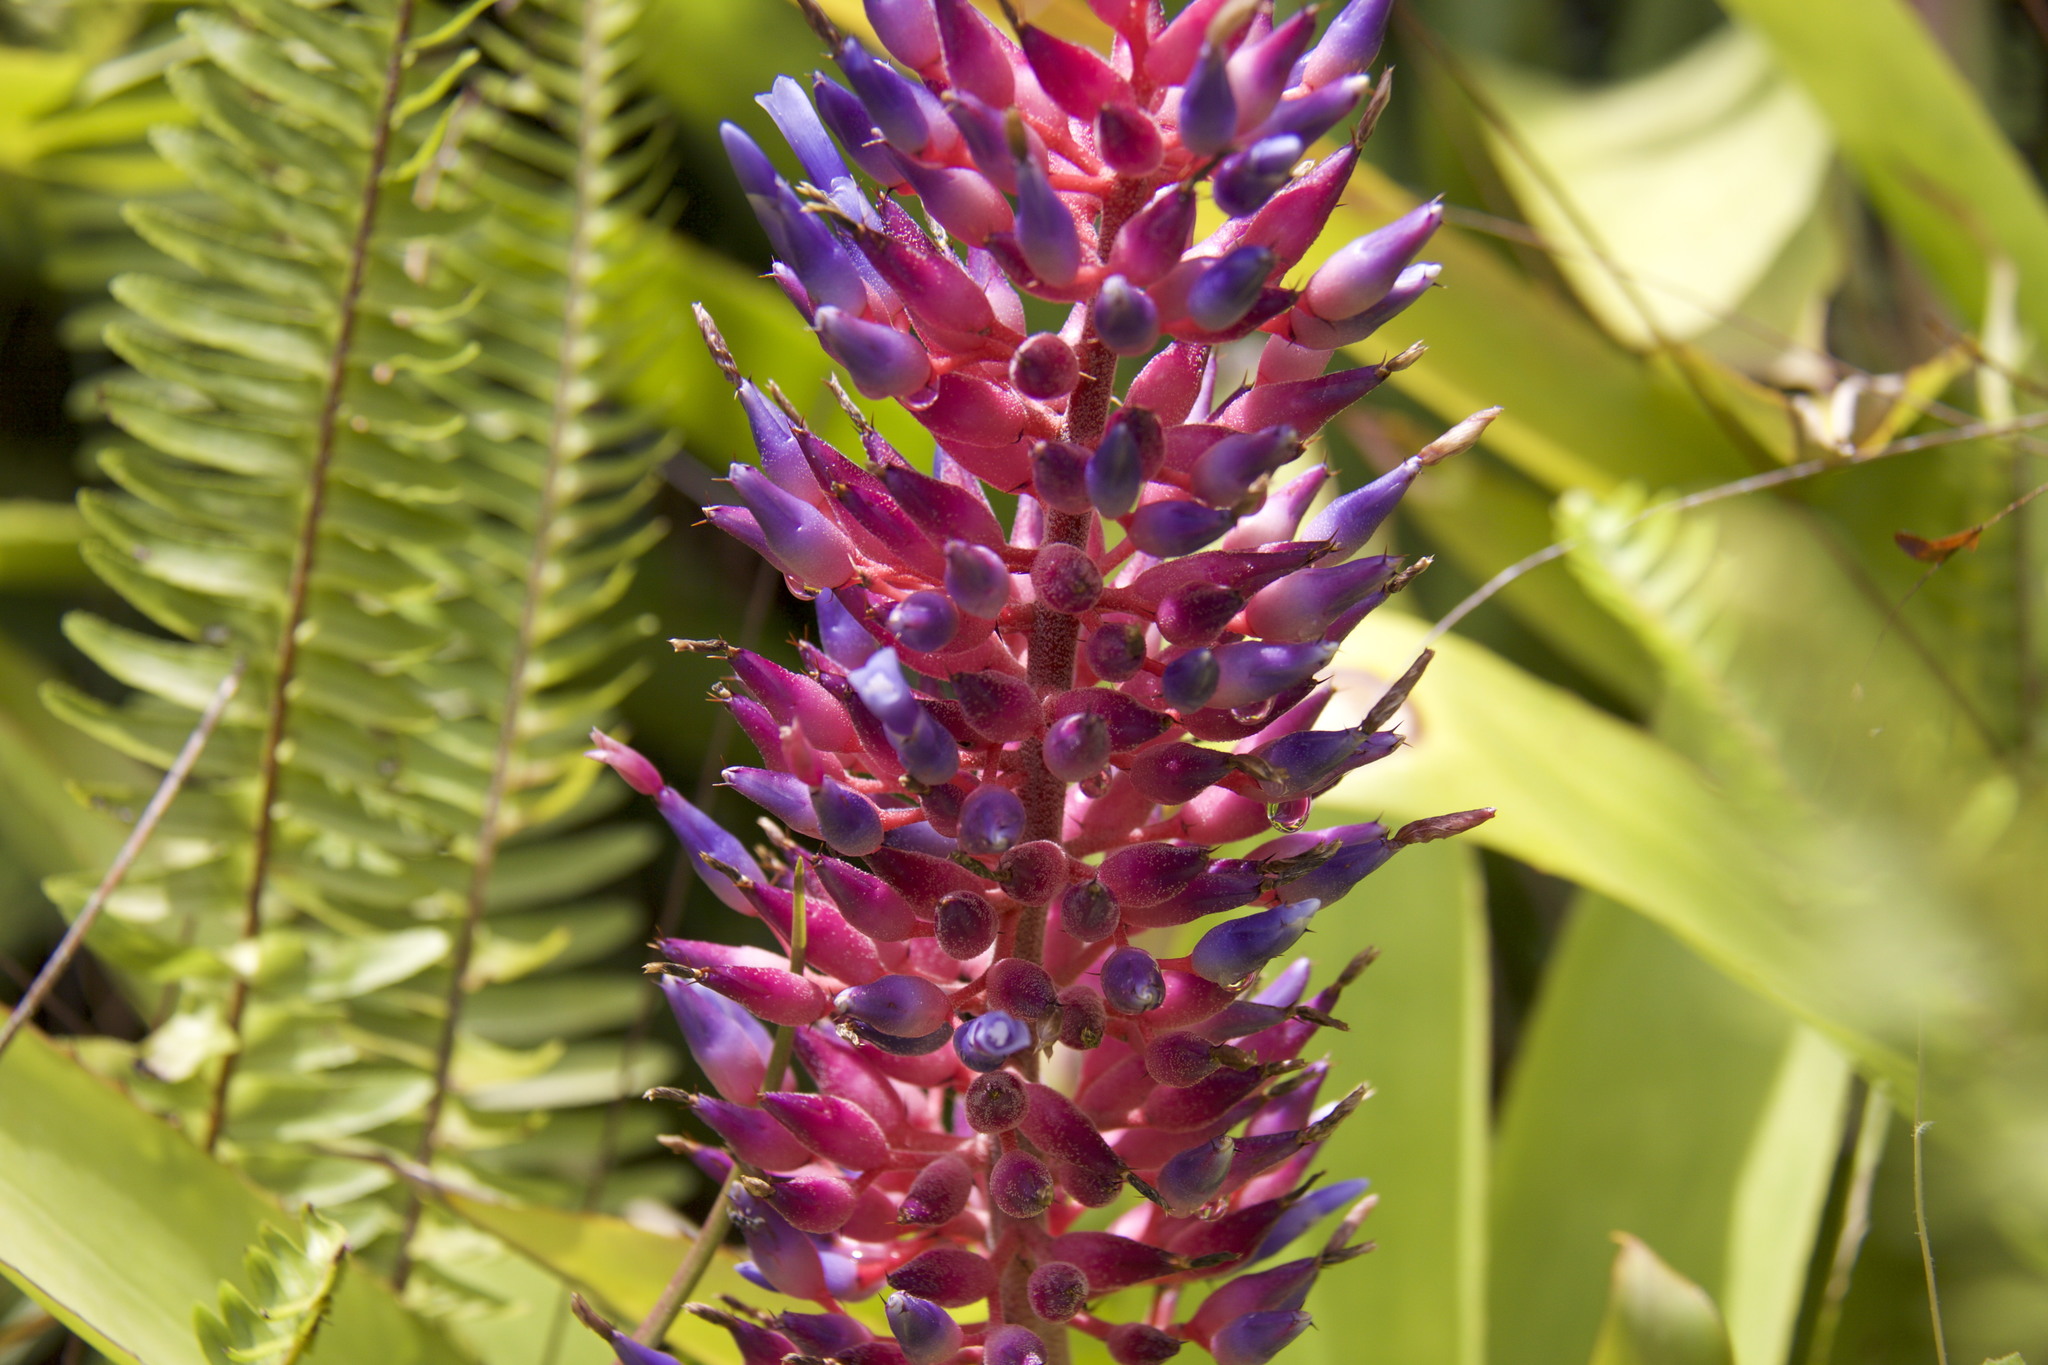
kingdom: Plantae
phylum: Tracheophyta
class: Liliopsida
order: Poales
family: Bromeliaceae
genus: Aechmea
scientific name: Aechmea fendleri
